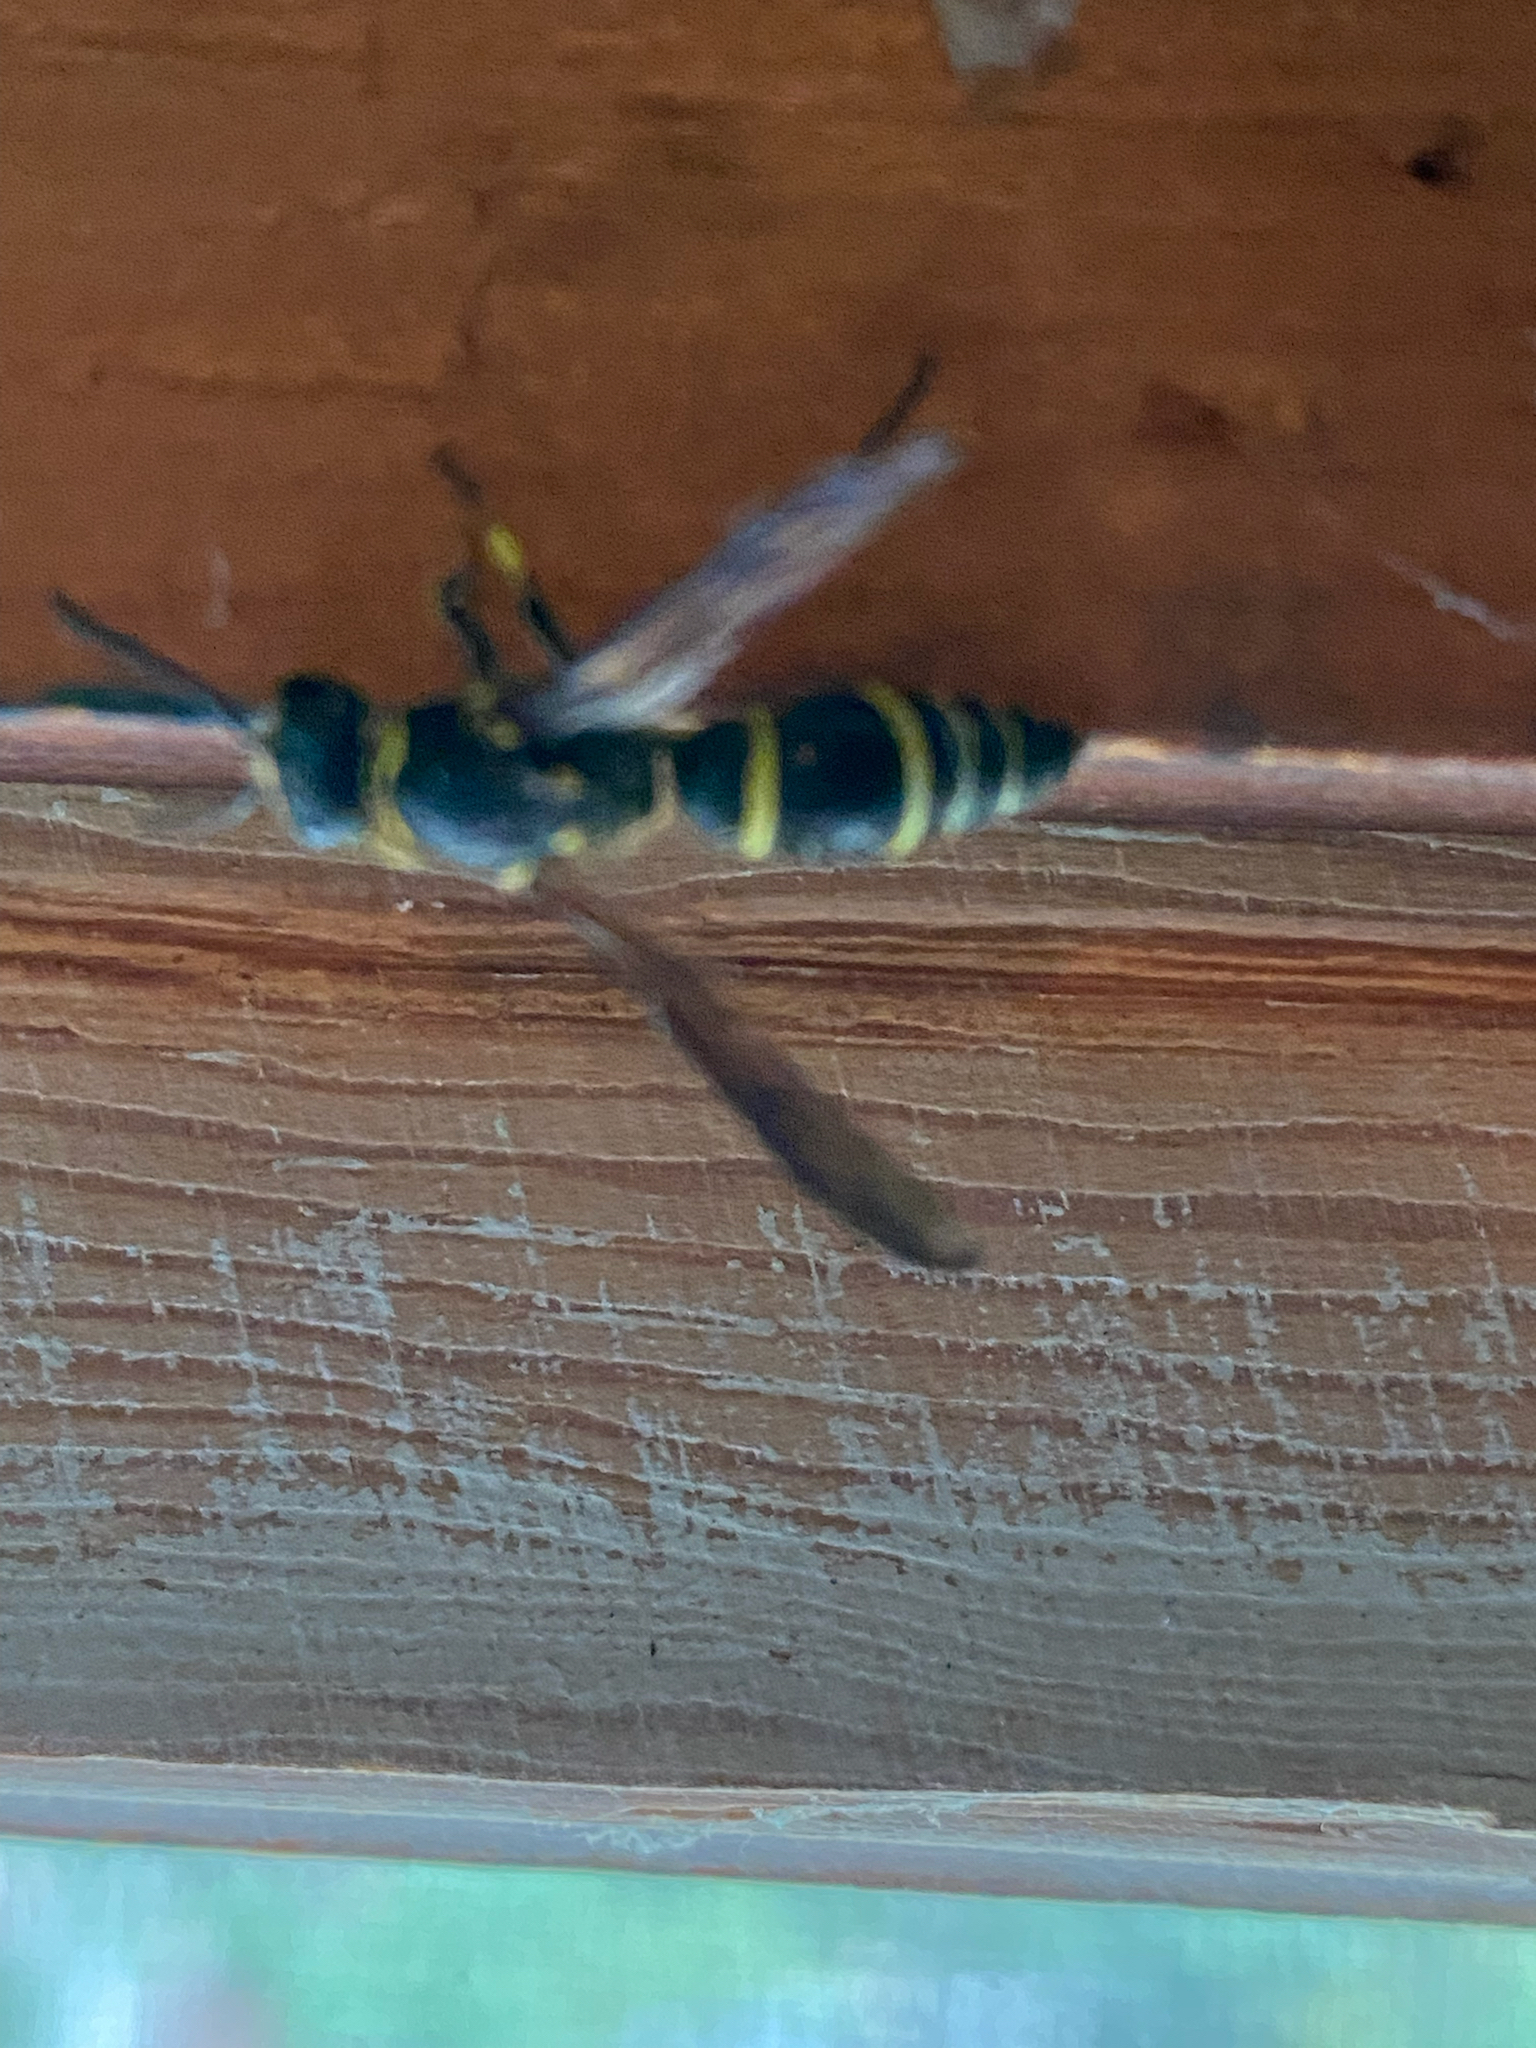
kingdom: Animalia
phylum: Arthropoda
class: Insecta
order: Hymenoptera
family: Vespidae
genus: Ancistrocerus
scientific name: Ancistrocerus
